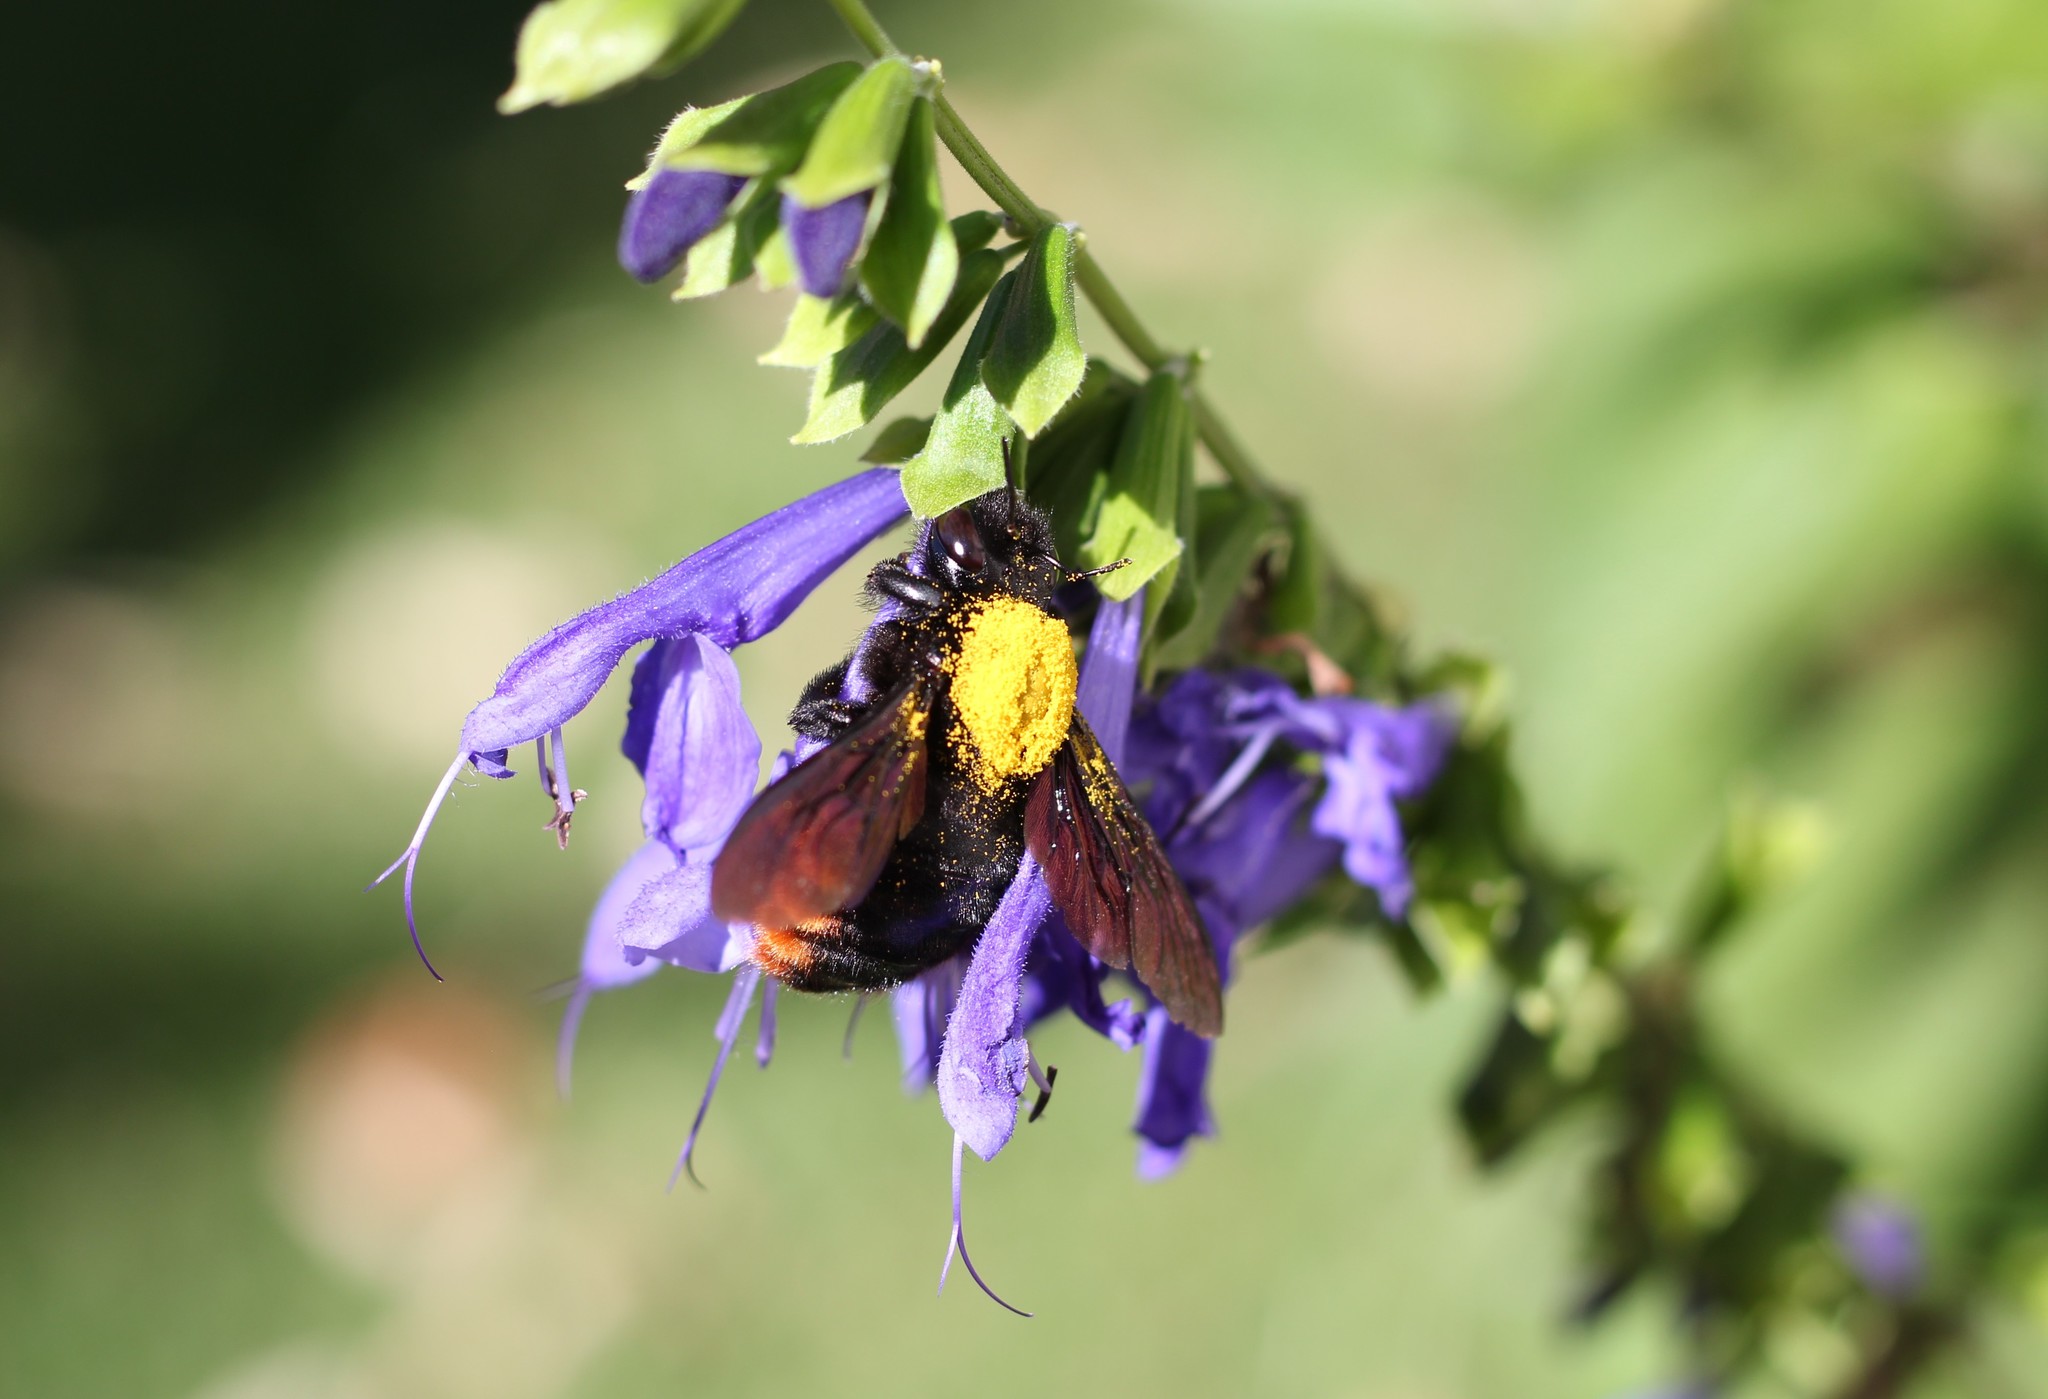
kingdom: Animalia
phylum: Arthropoda
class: Insecta
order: Hymenoptera
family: Apidae
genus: Xylocopa
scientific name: Xylocopa augusti
